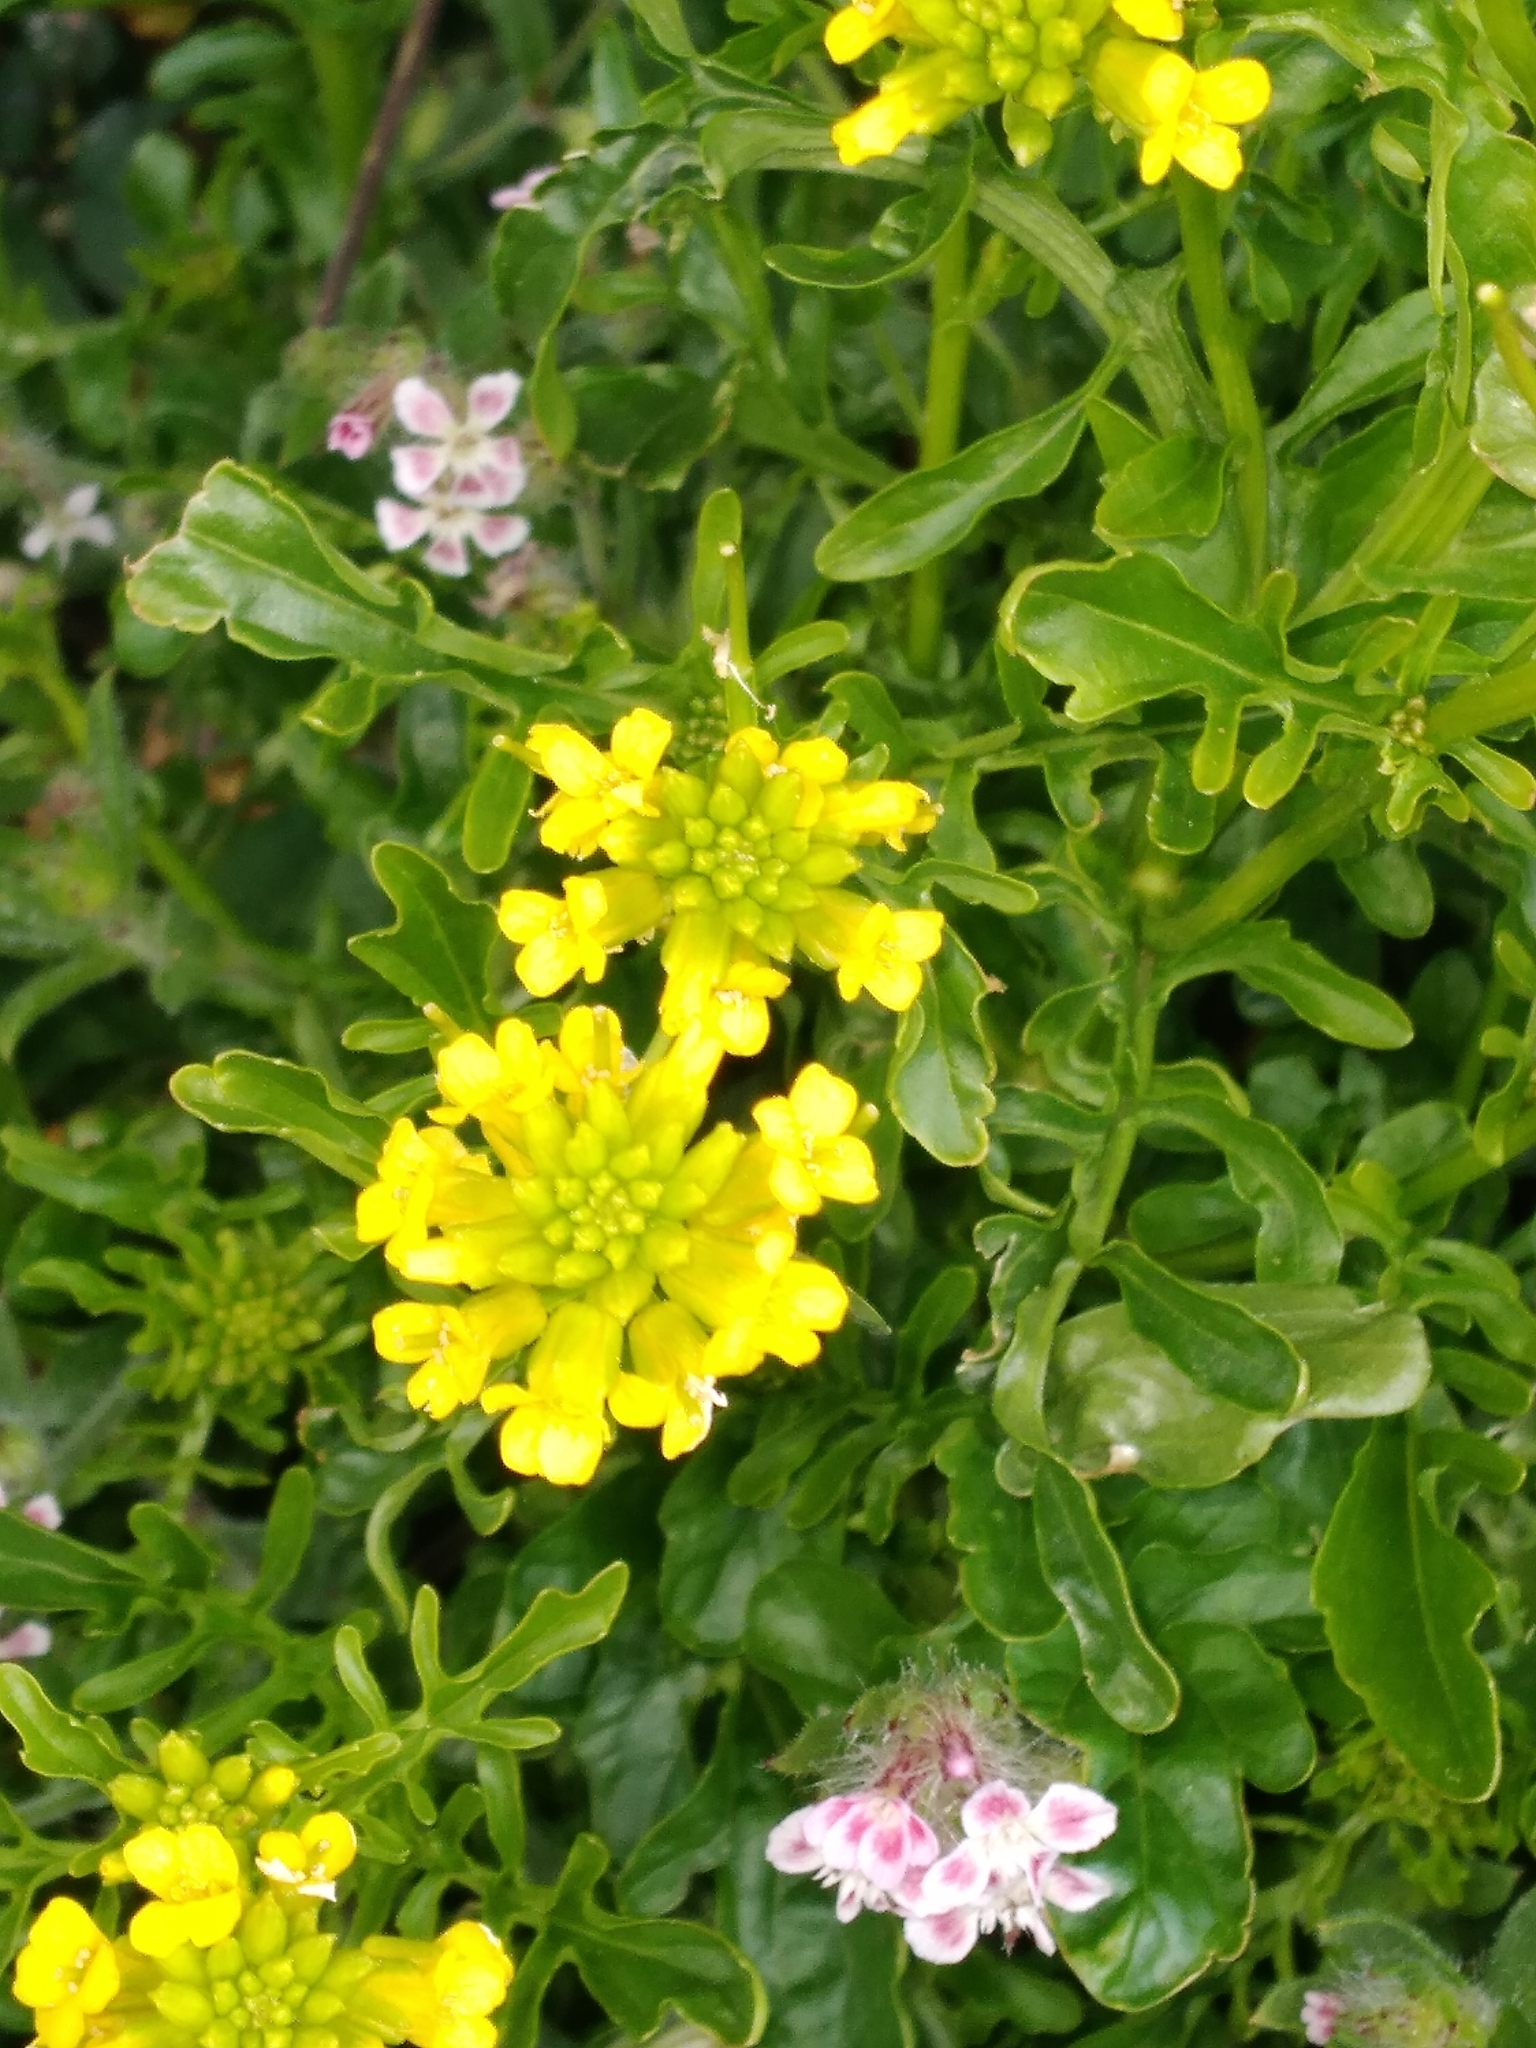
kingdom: Plantae
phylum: Tracheophyta
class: Magnoliopsida
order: Brassicales
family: Brassicaceae
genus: Barbarea
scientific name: Barbarea intermedia
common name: Medium-flowered winter-cress
